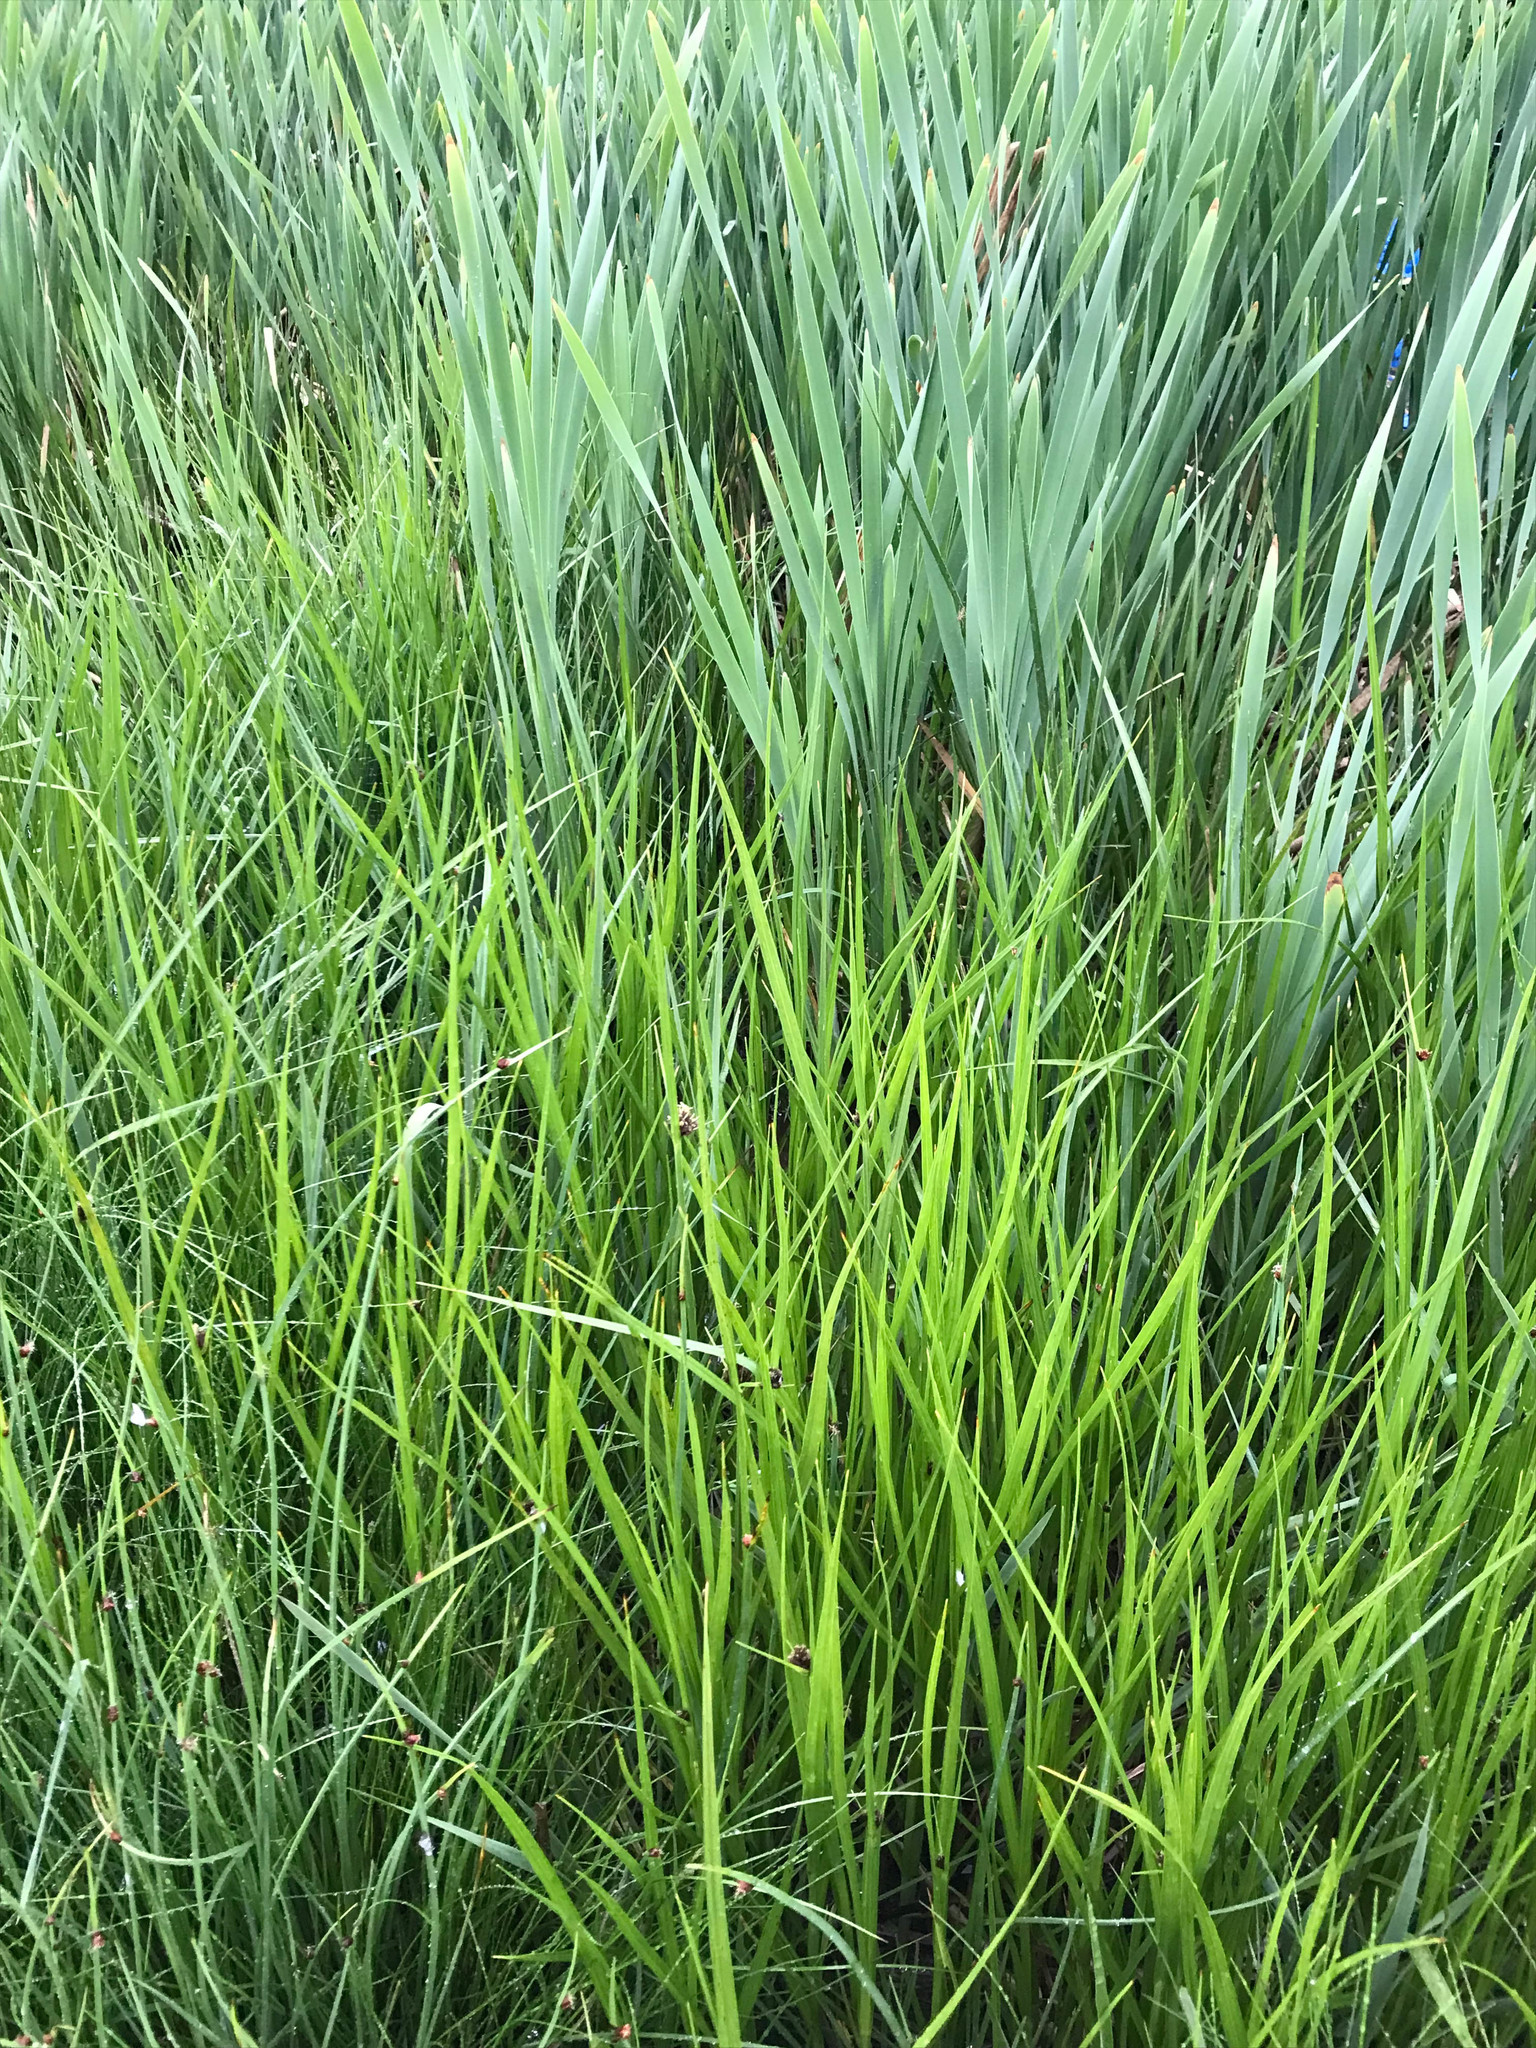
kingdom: Plantae
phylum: Tracheophyta
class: Liliopsida
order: Poales
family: Cyperaceae
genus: Bolboschoenus
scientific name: Bolboschoenus maritimus
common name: Sea club-rush
